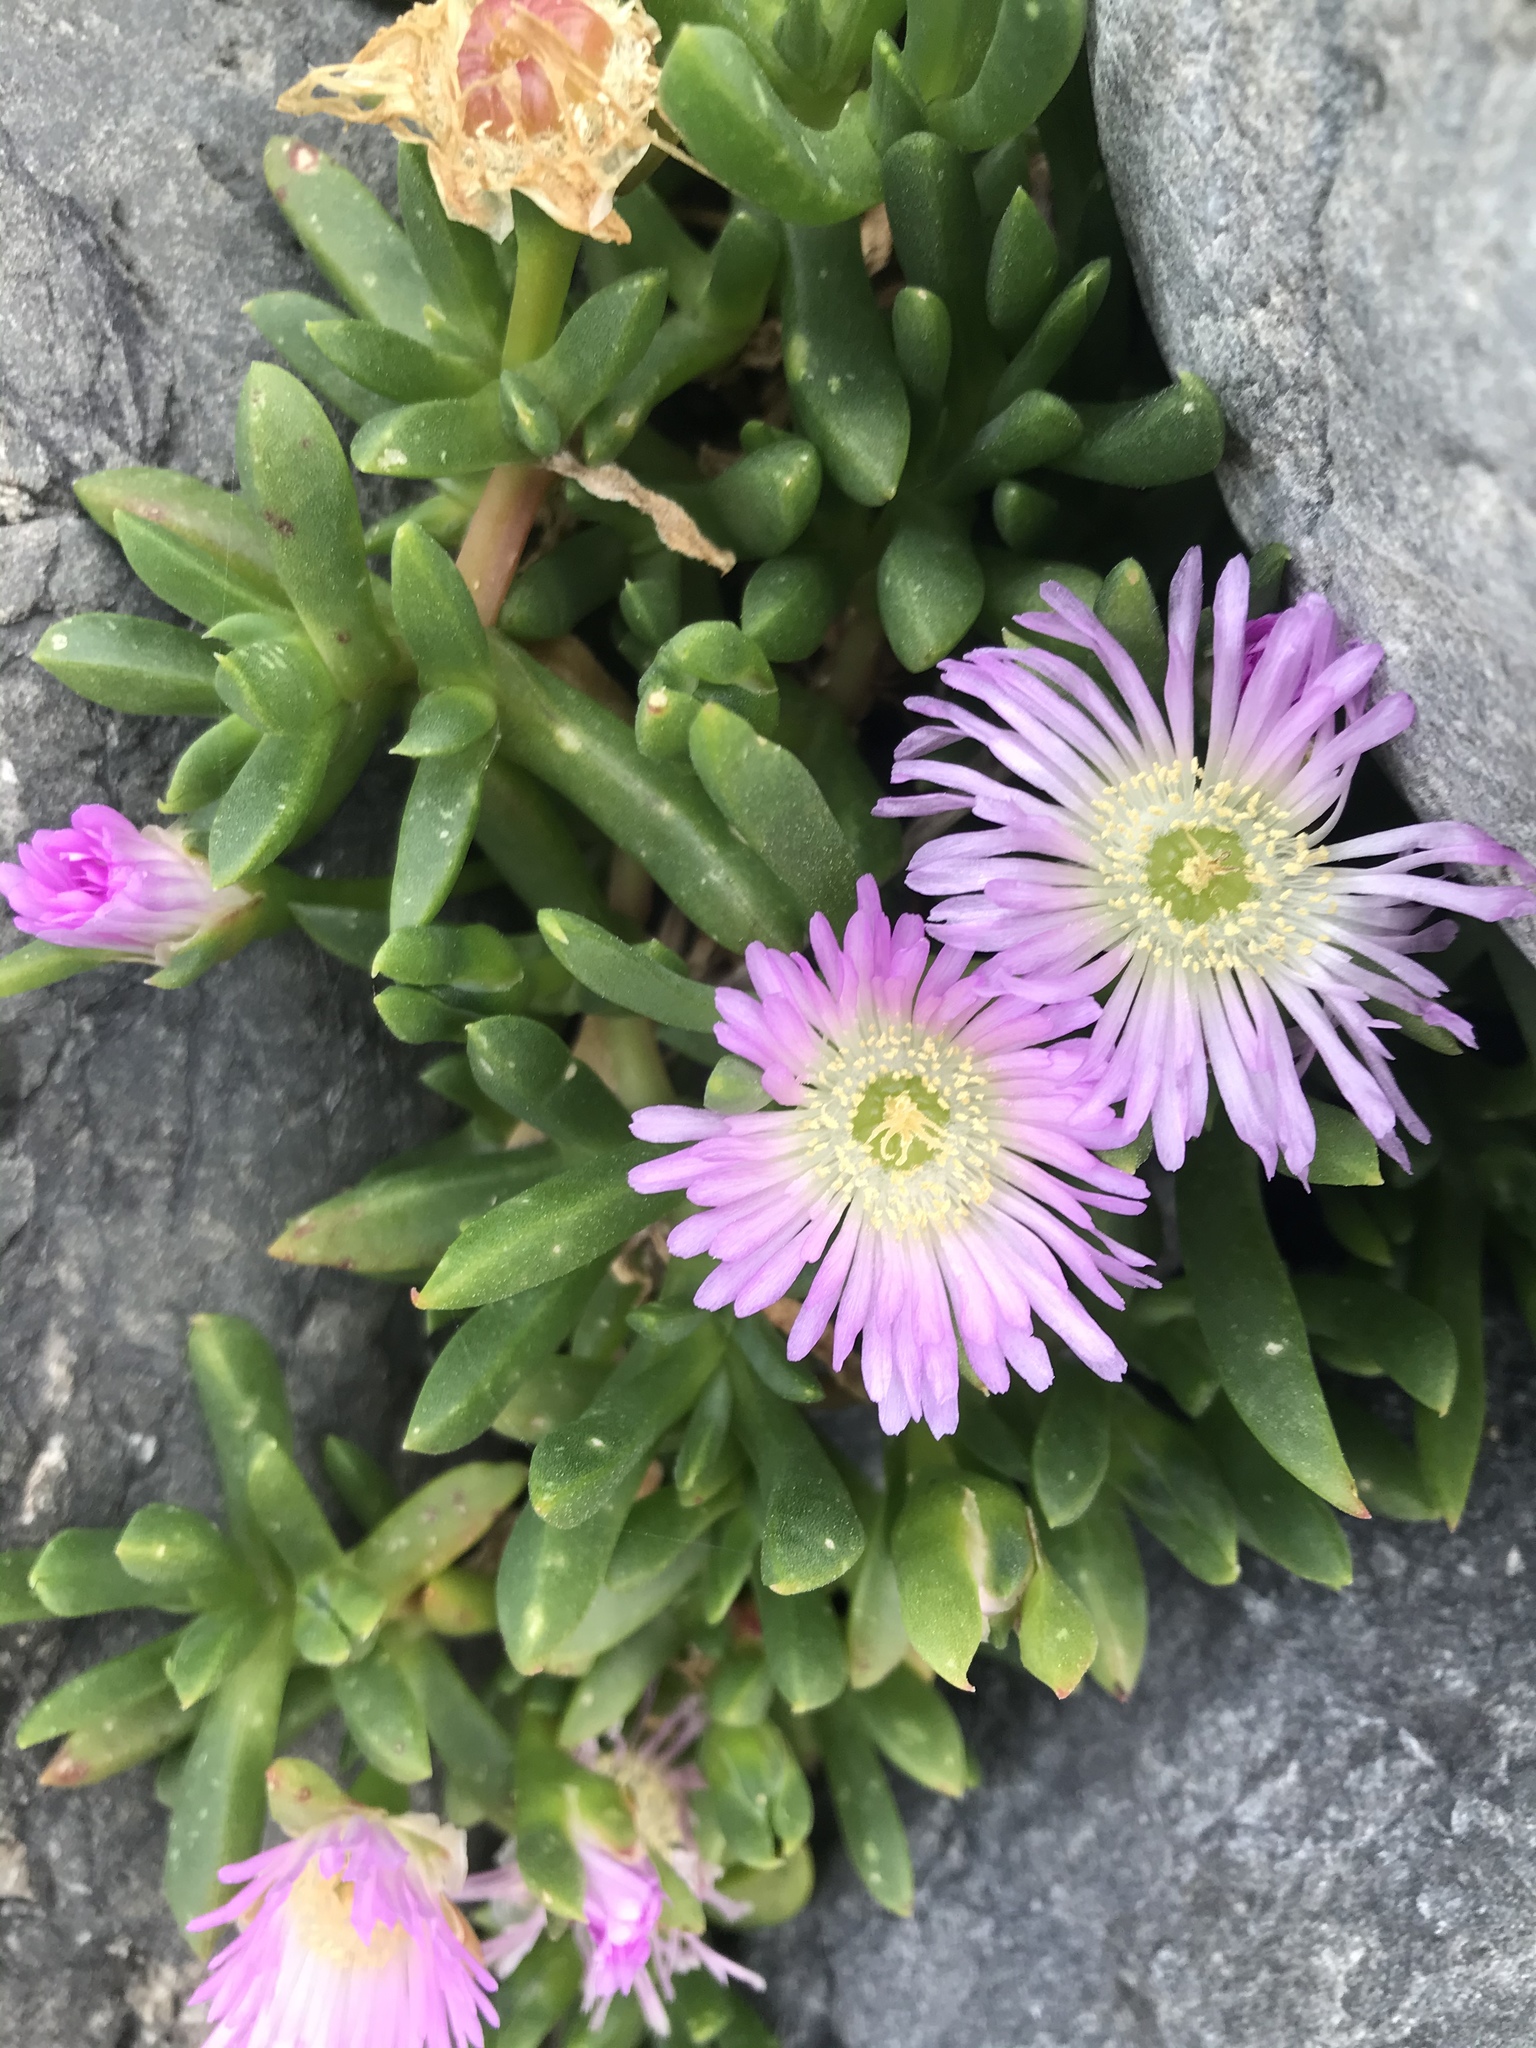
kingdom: Plantae
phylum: Tracheophyta
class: Magnoliopsida
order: Caryophyllales
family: Aizoaceae
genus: Disphyma
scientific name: Disphyma australe
